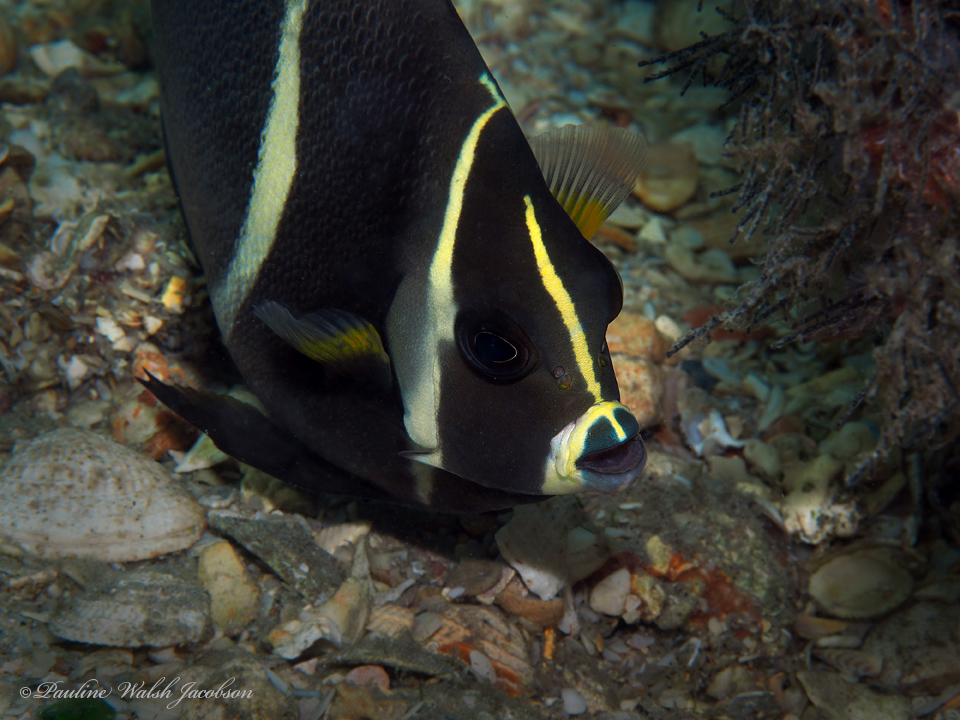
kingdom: Animalia
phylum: Chordata
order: Perciformes
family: Pomacanthidae
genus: Pomacanthus
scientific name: Pomacanthus arcuatus
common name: Gray angelfish
